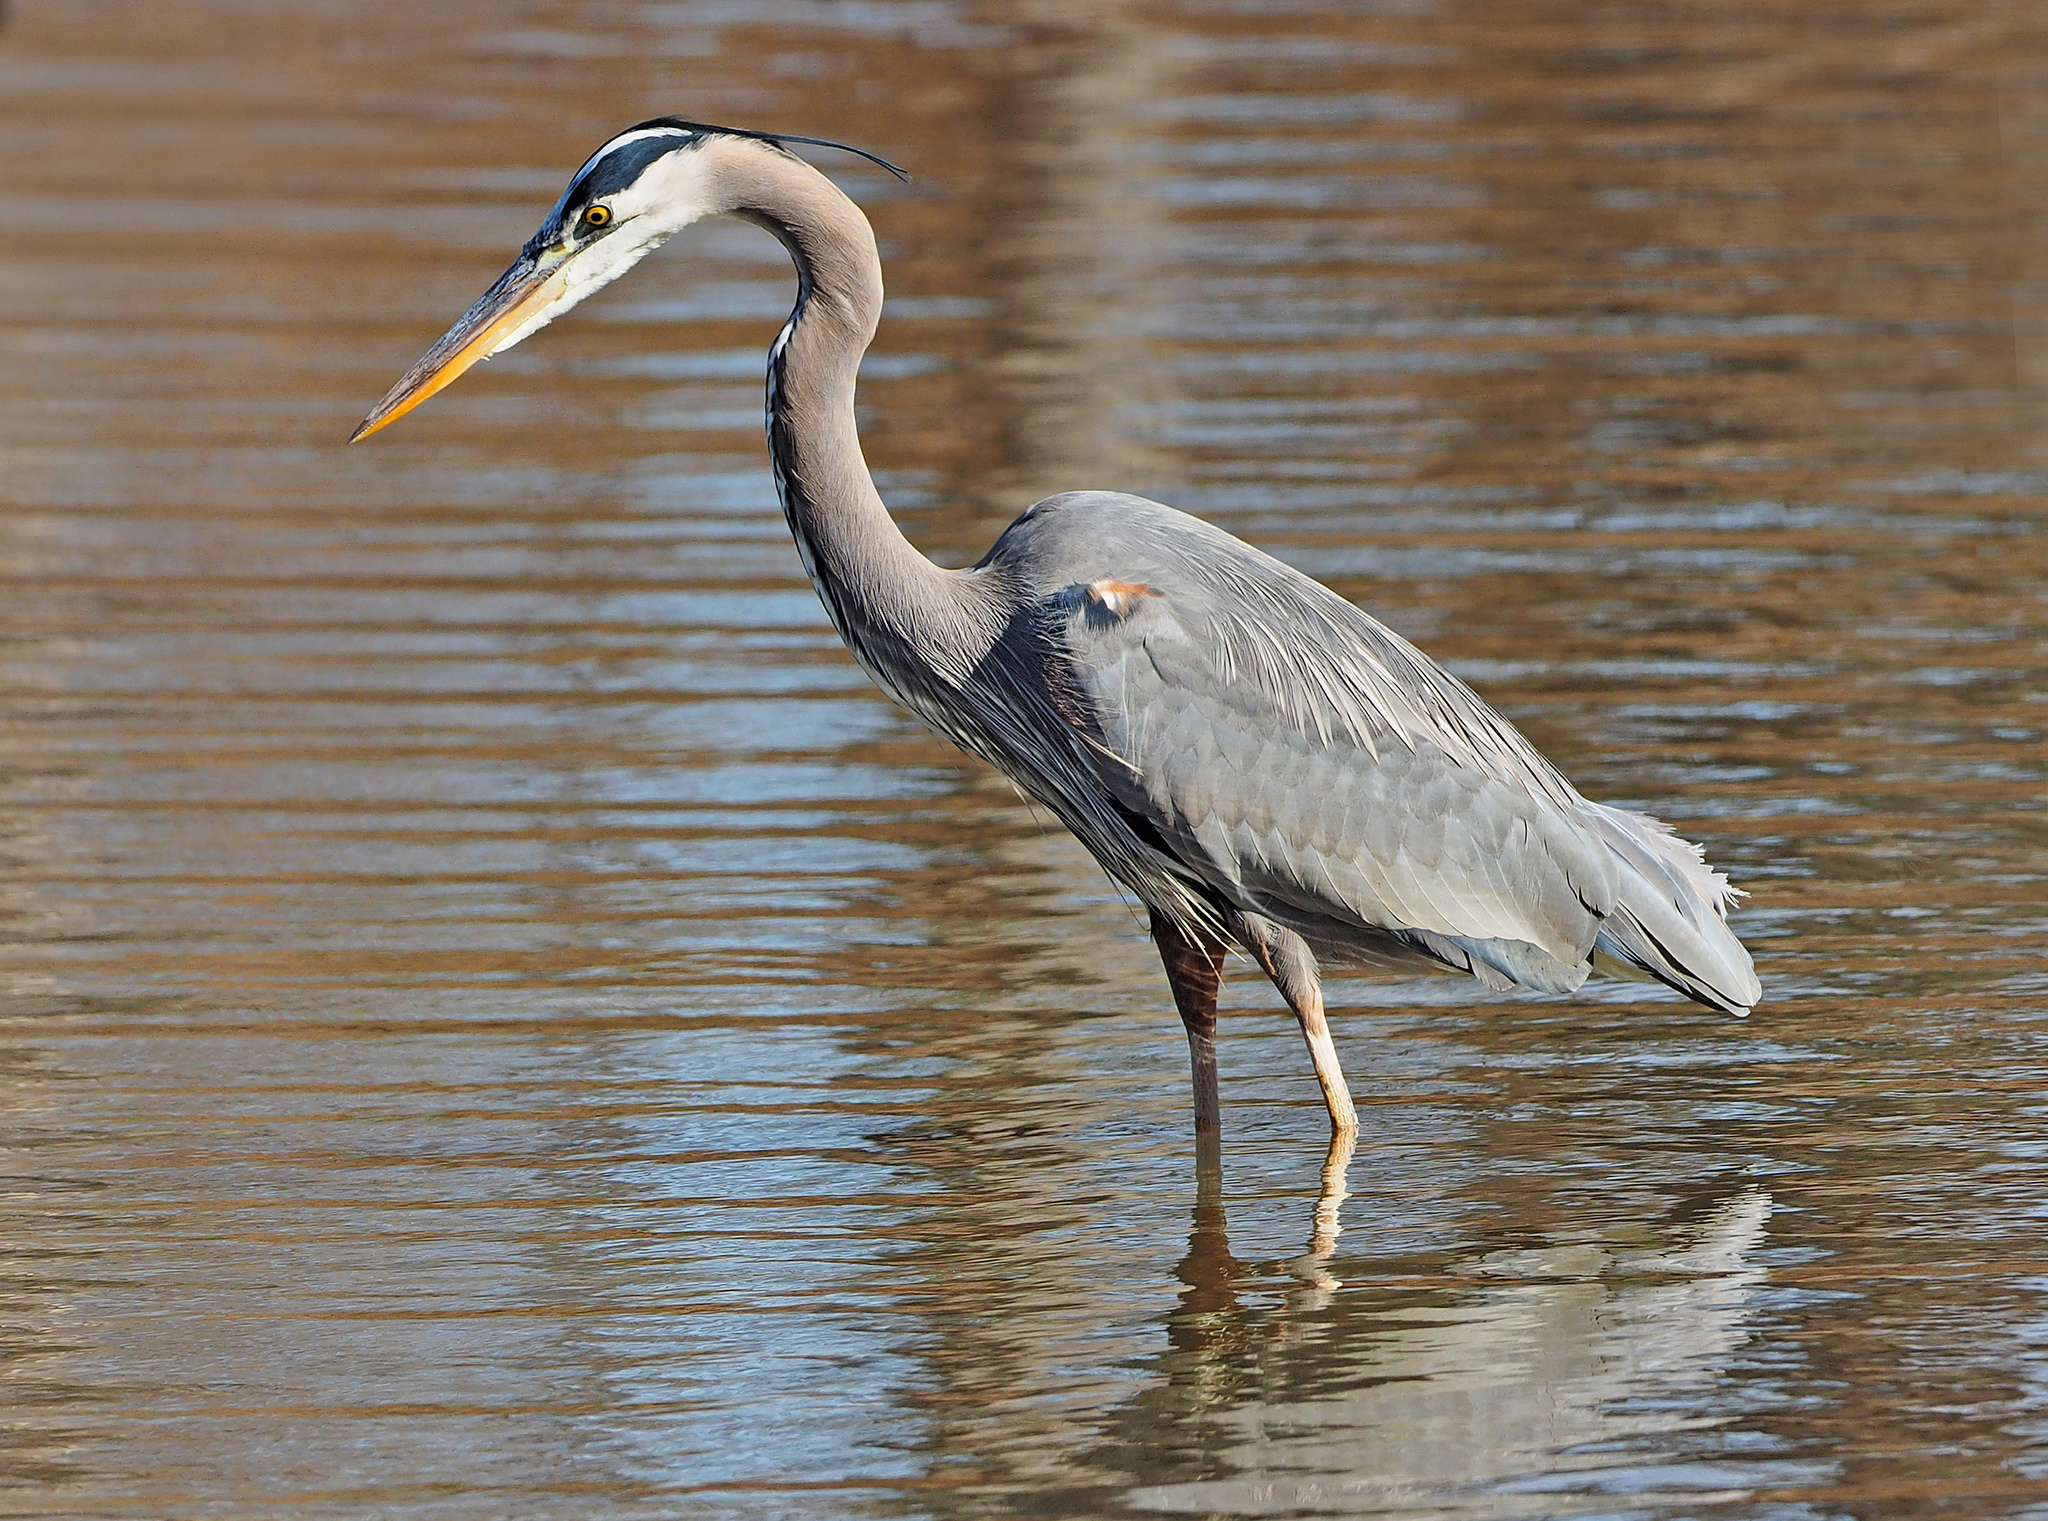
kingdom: Animalia
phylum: Chordata
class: Aves
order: Pelecaniformes
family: Ardeidae
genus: Ardea
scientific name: Ardea herodias
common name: Great blue heron
